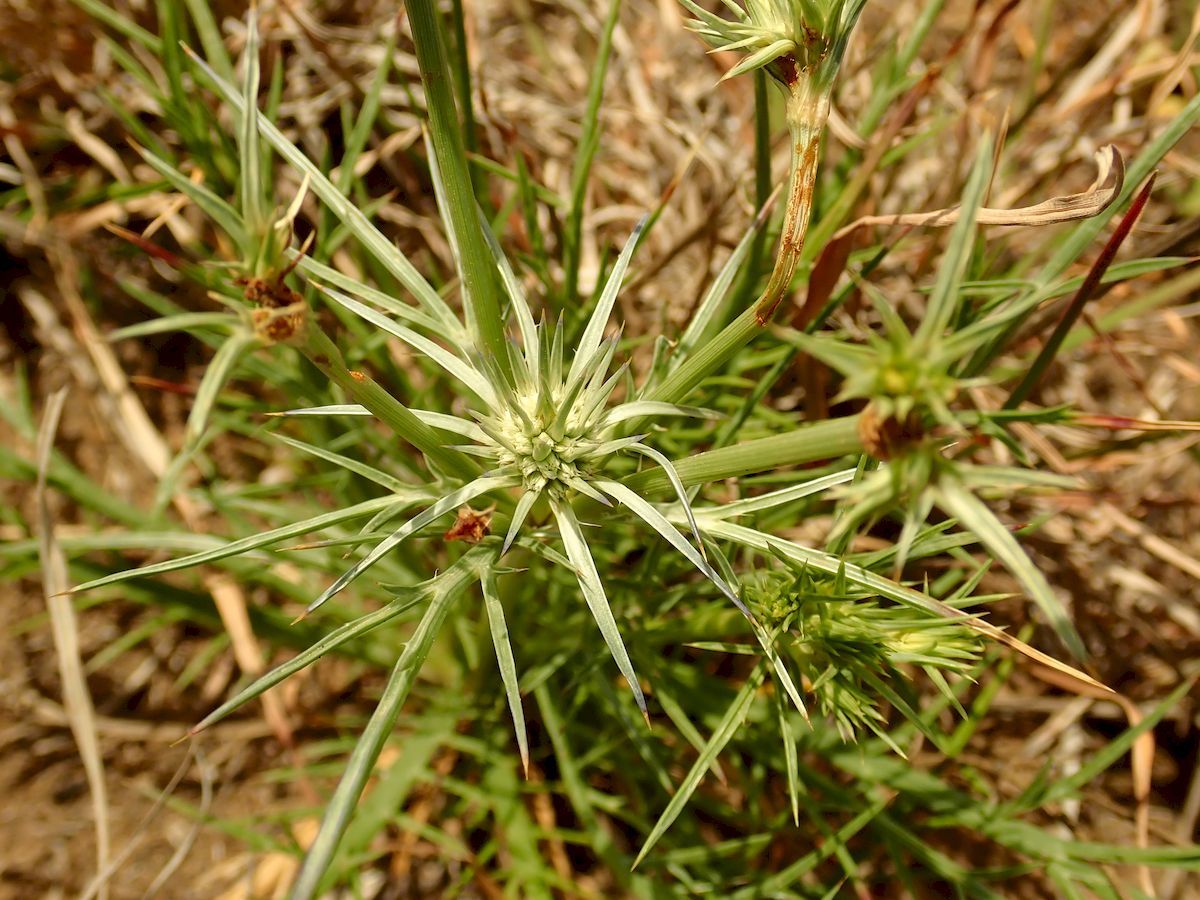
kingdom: Plantae
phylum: Tracheophyta
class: Magnoliopsida
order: Apiales
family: Apiaceae
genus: Eryngium
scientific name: Eryngium ovinum
